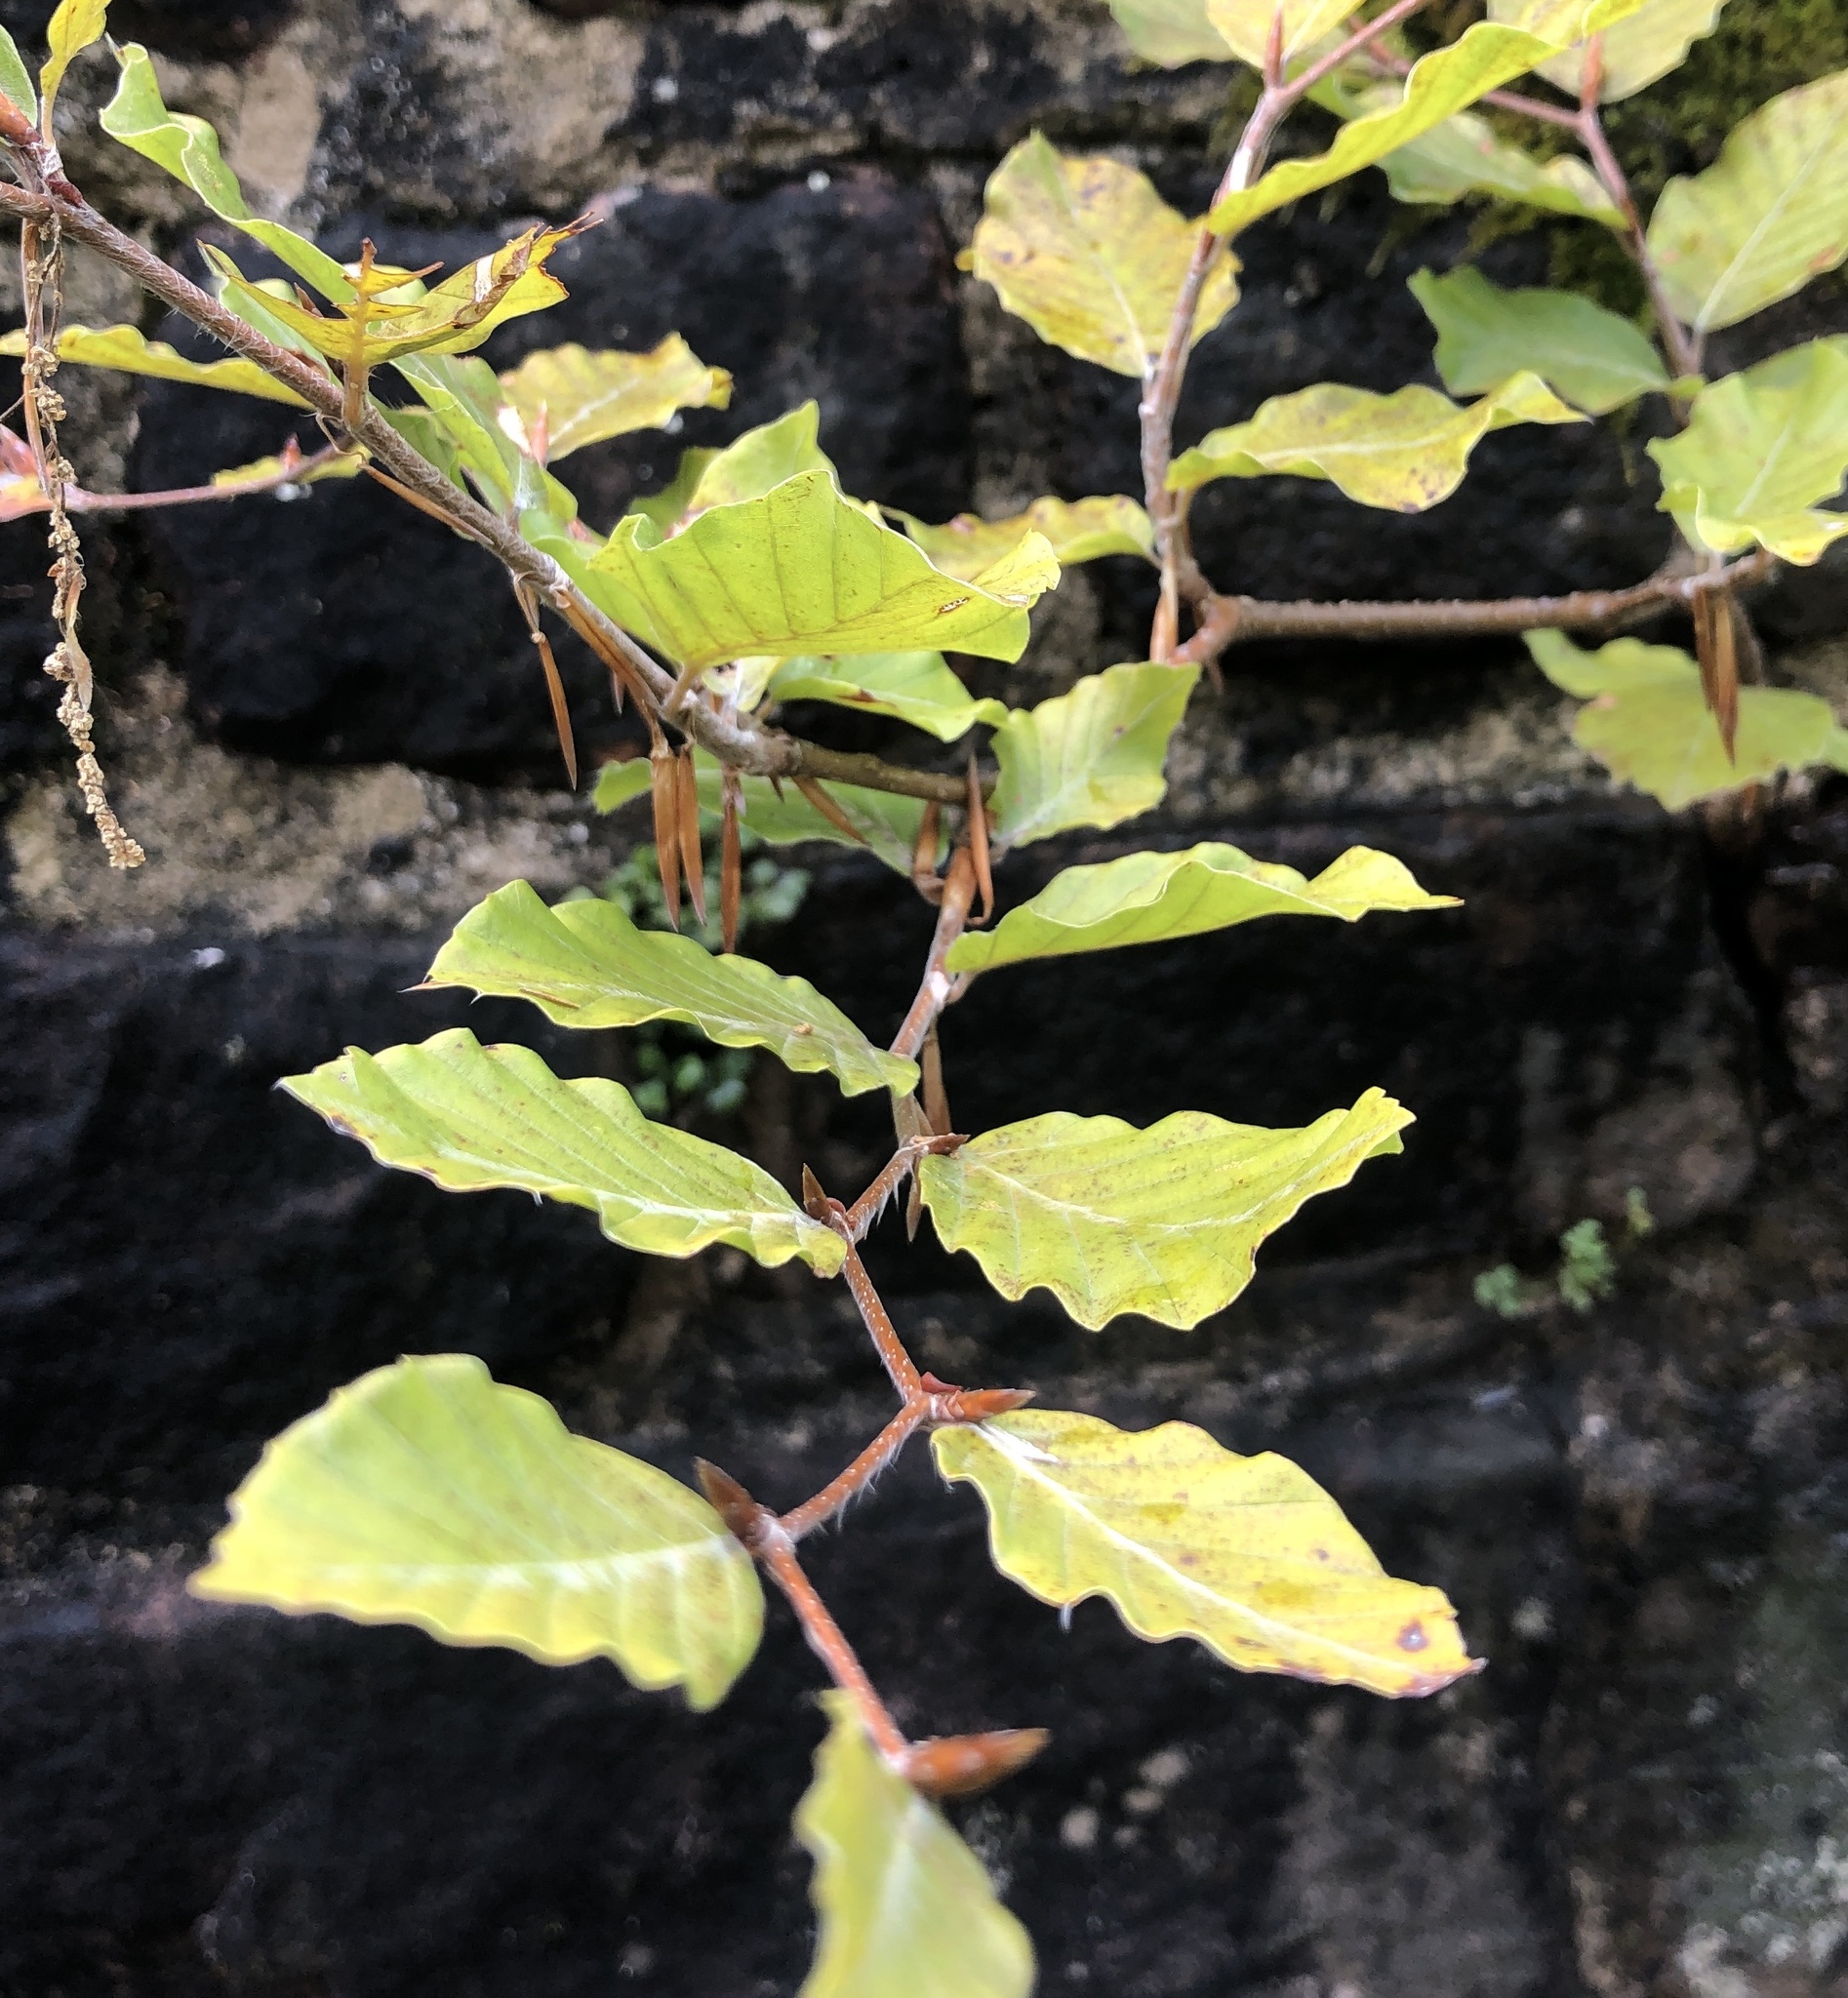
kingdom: Plantae
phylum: Tracheophyta
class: Magnoliopsida
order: Fagales
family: Fagaceae
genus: Fagus
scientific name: Fagus sylvatica
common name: Beech
